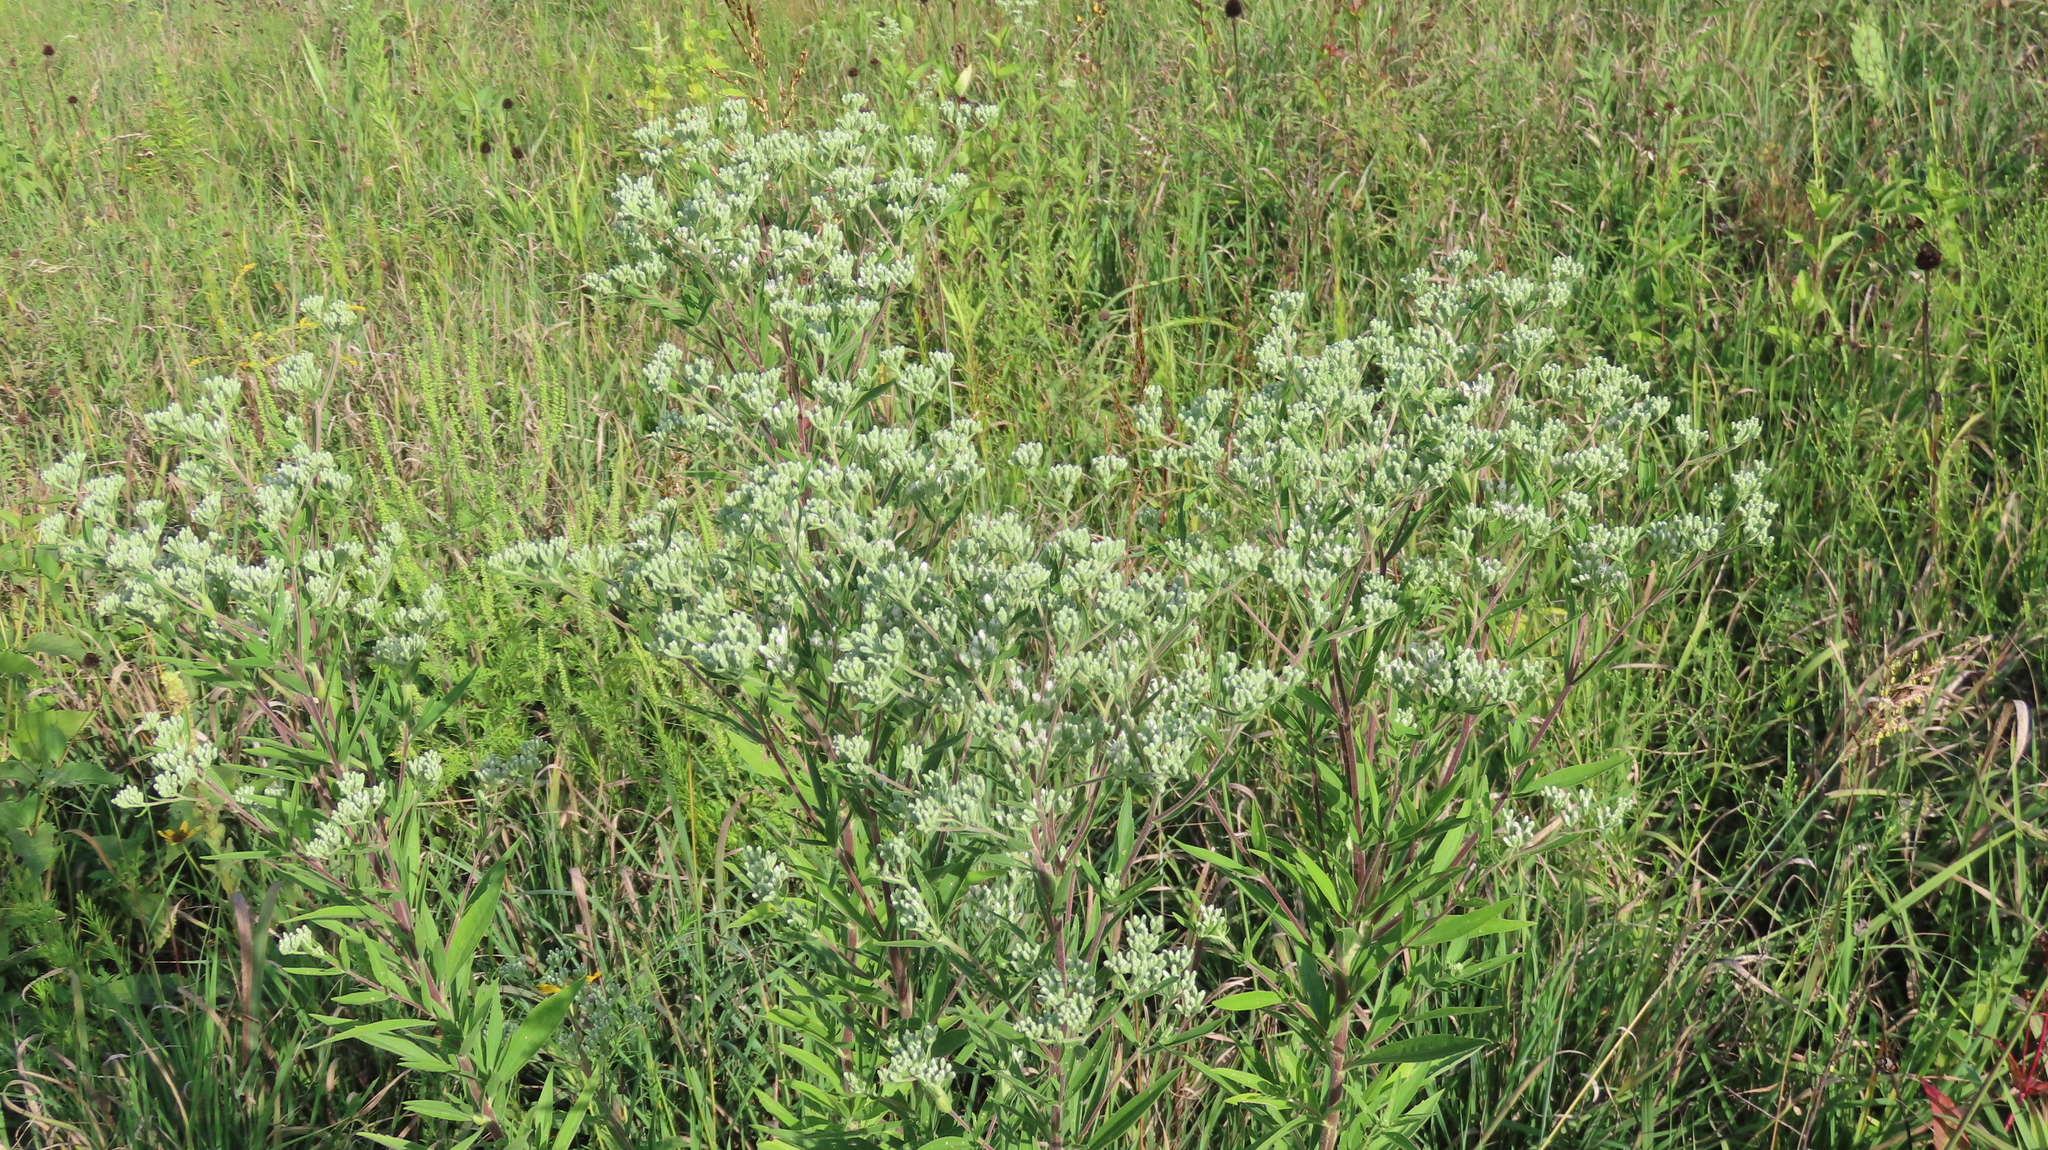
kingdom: Plantae
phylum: Tracheophyta
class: Magnoliopsida
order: Asterales
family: Asteraceae
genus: Eupatorium
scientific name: Eupatorium altissimum
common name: Tall thoroughwort
